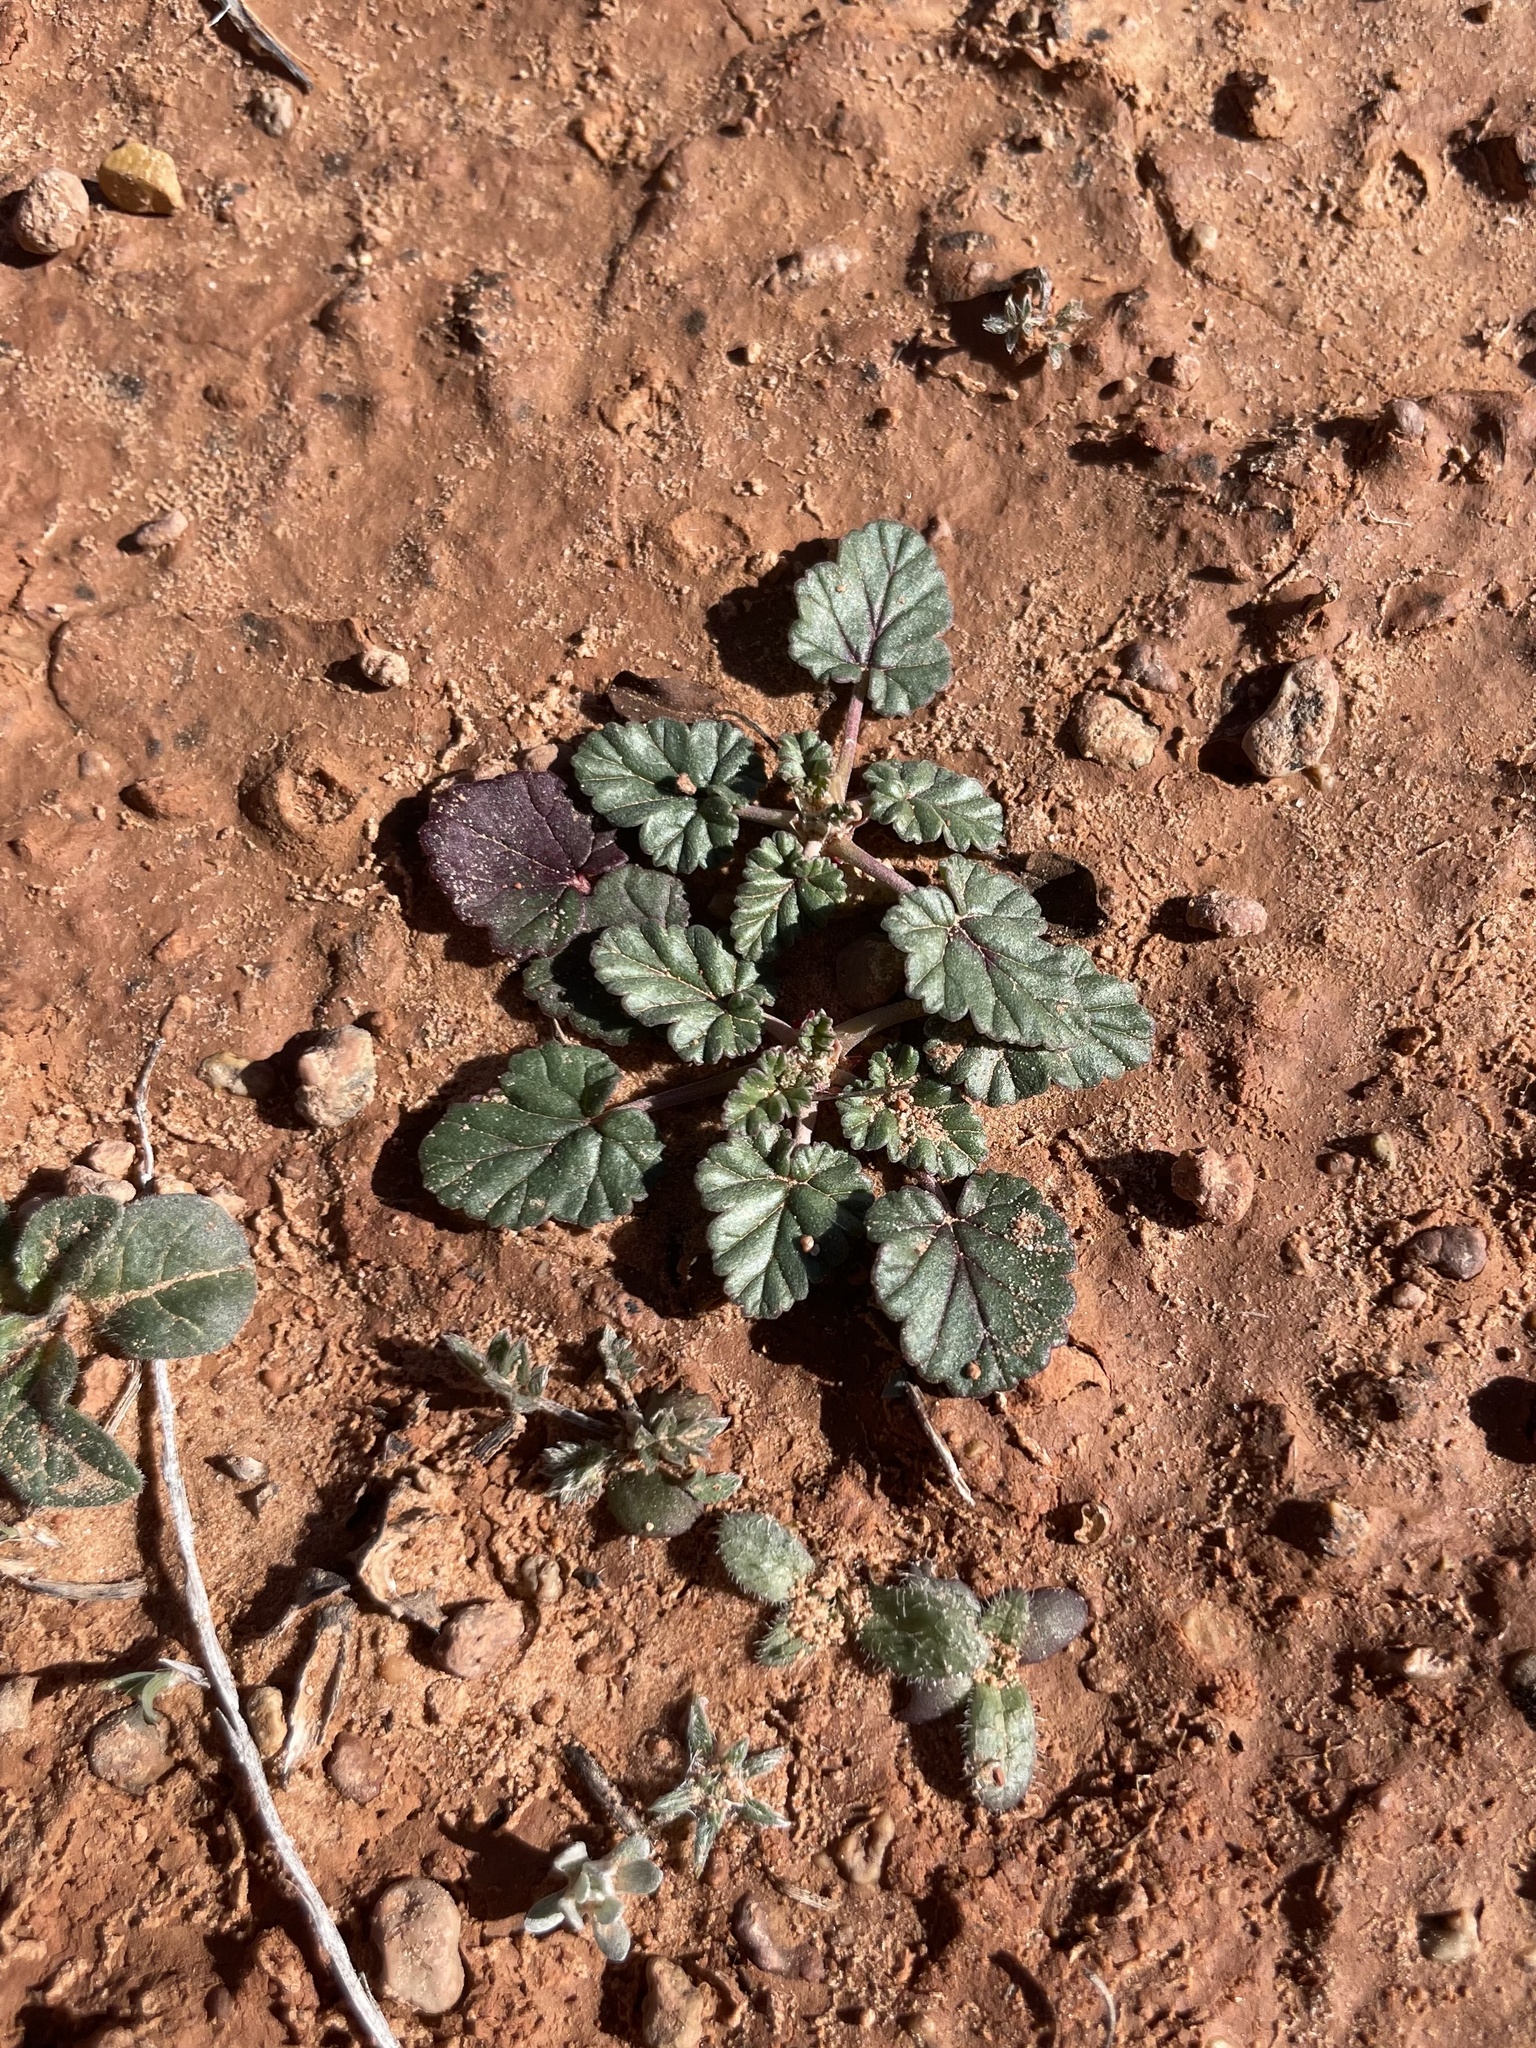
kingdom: Plantae
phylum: Tracheophyta
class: Magnoliopsida
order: Geraniales
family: Geraniaceae
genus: Erodium
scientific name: Erodium texanum
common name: Texas stork's-bill
